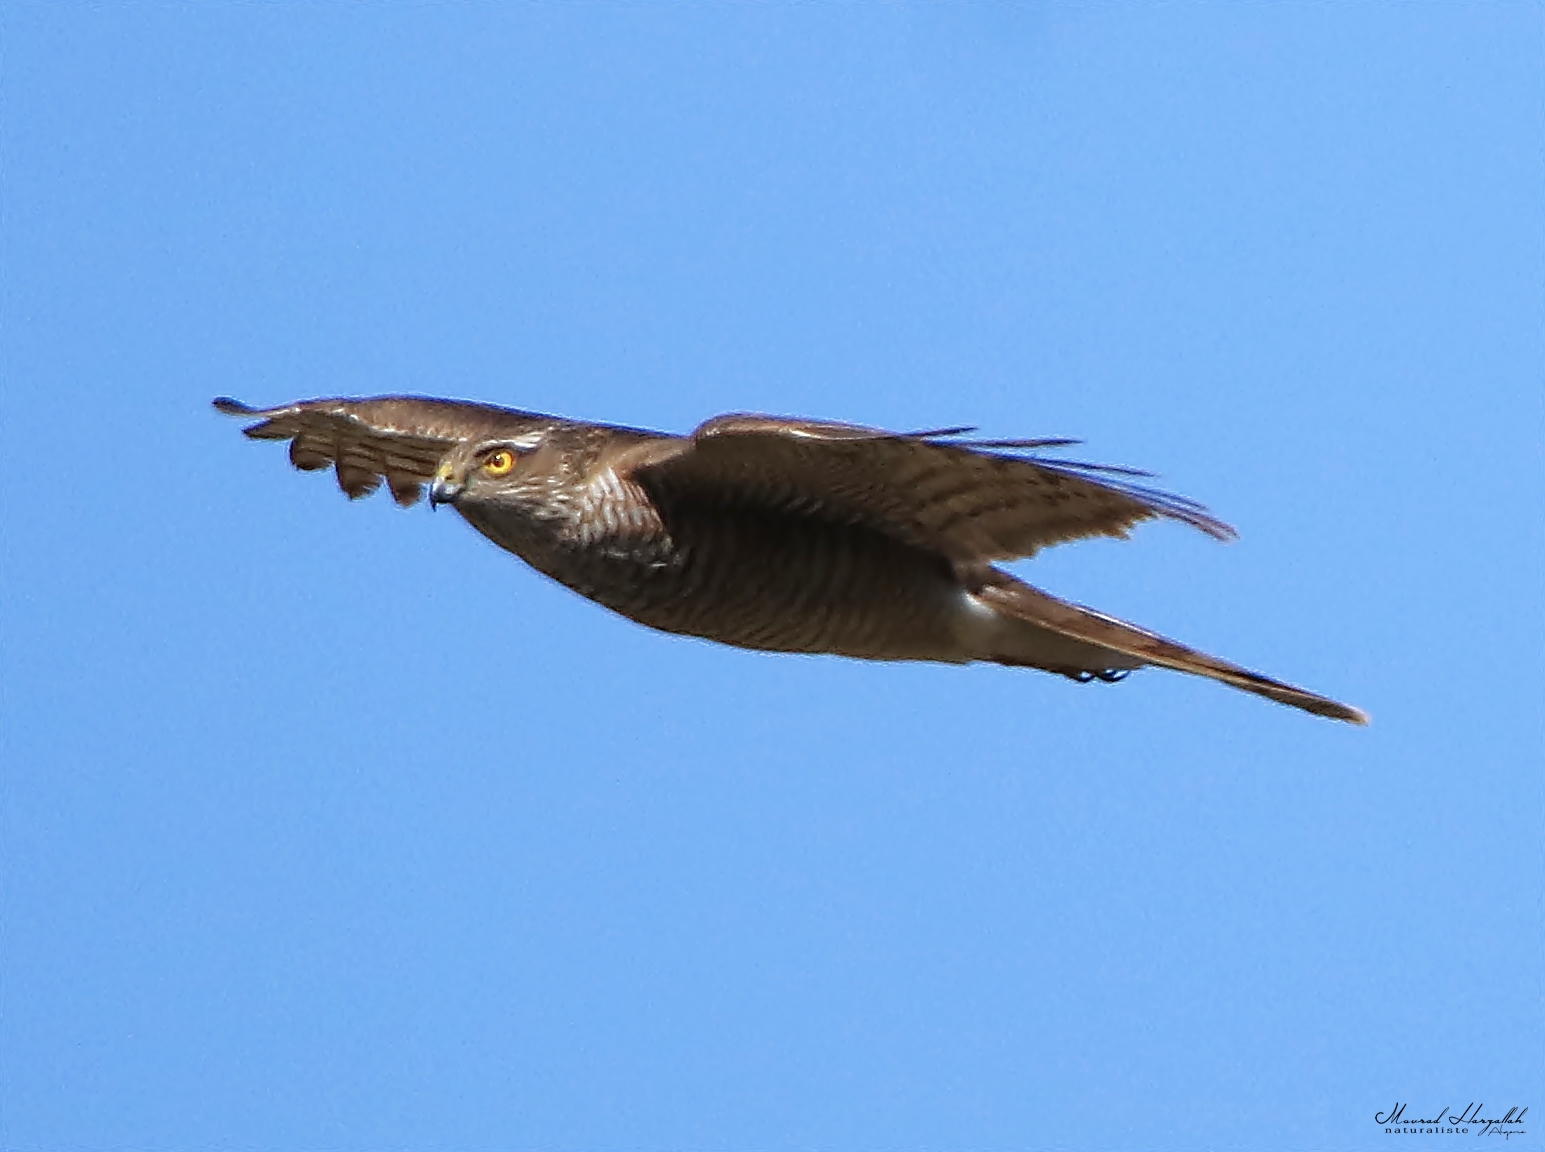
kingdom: Animalia
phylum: Chordata
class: Aves
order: Accipitriformes
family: Accipitridae
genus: Accipiter
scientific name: Accipiter nisus
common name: Eurasian sparrowhawk
